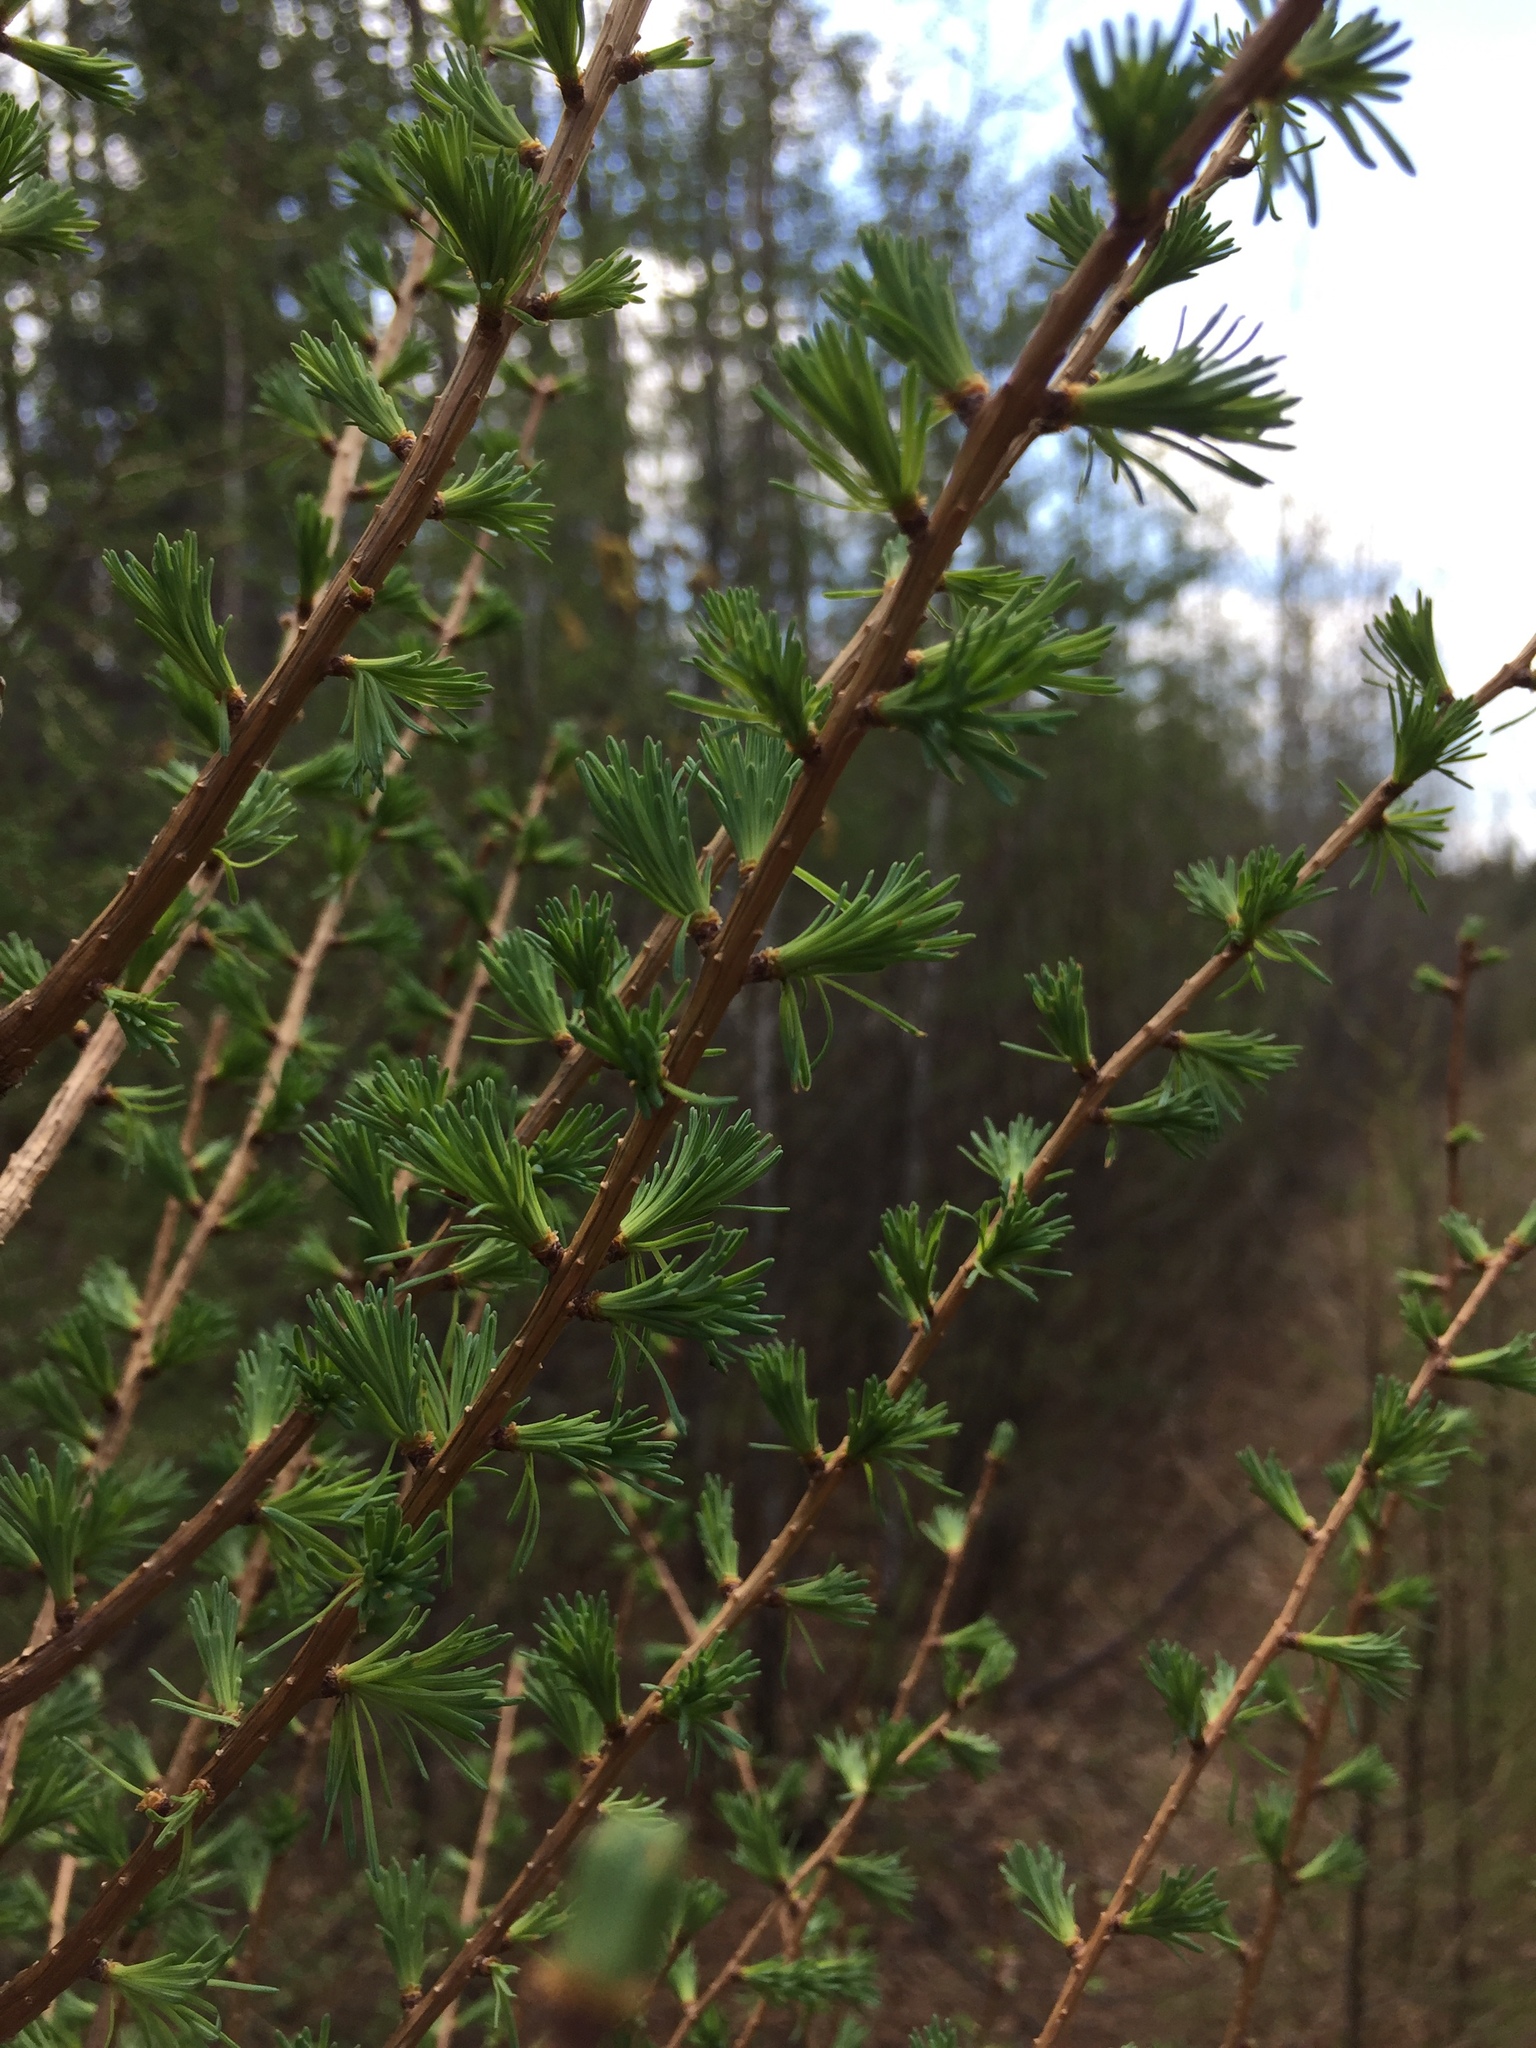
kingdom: Plantae
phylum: Tracheophyta
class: Pinopsida
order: Pinales
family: Pinaceae
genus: Larix
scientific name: Larix laricina
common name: American larch
